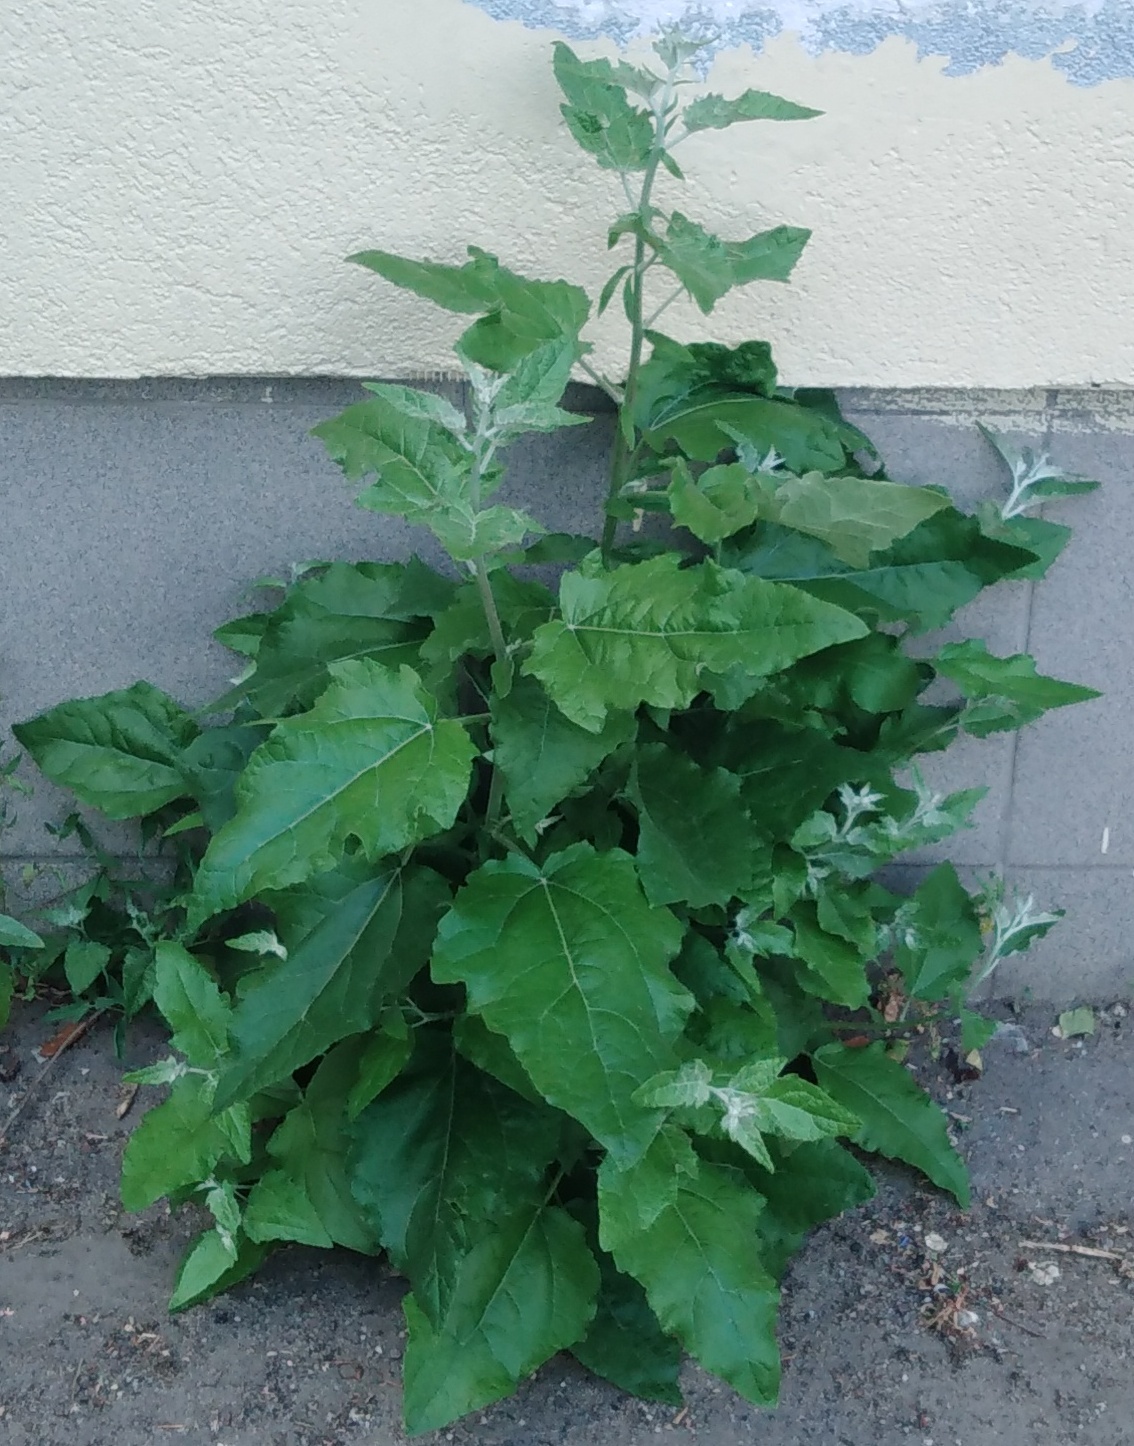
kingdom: Plantae
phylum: Tracheophyta
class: Magnoliopsida
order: Malpighiales
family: Salicaceae
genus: Populus
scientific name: Populus alba
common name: White poplar
